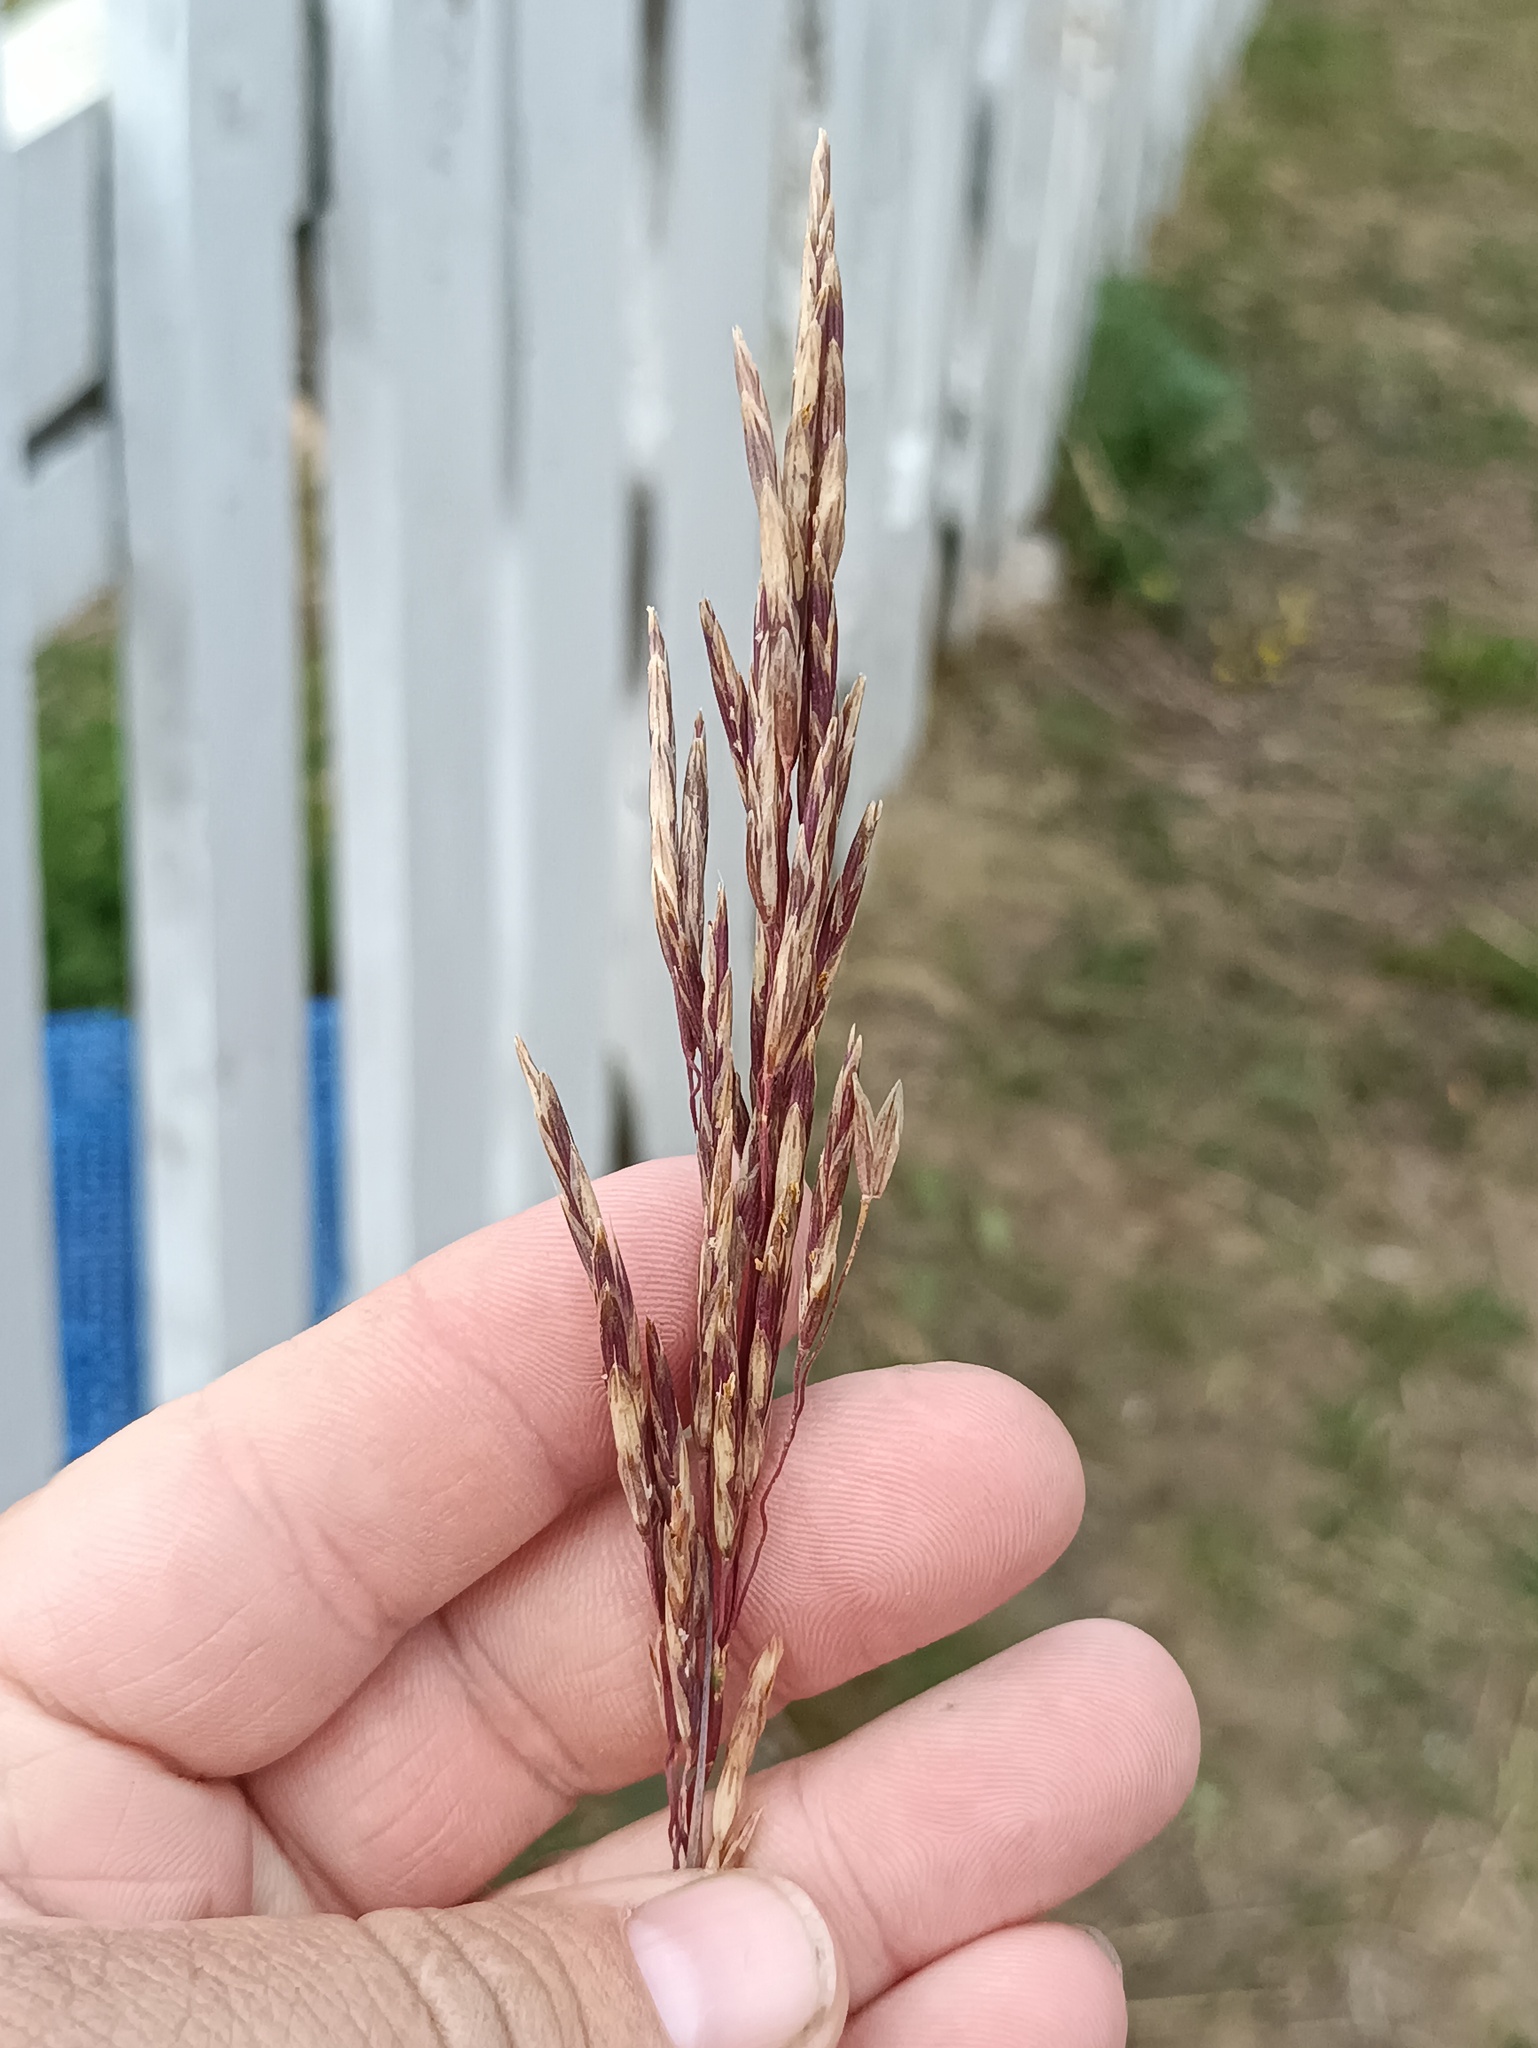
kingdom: Plantae
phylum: Tracheophyta
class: Liliopsida
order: Poales
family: Poaceae
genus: Bromus
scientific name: Bromus inermis
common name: Smooth brome
